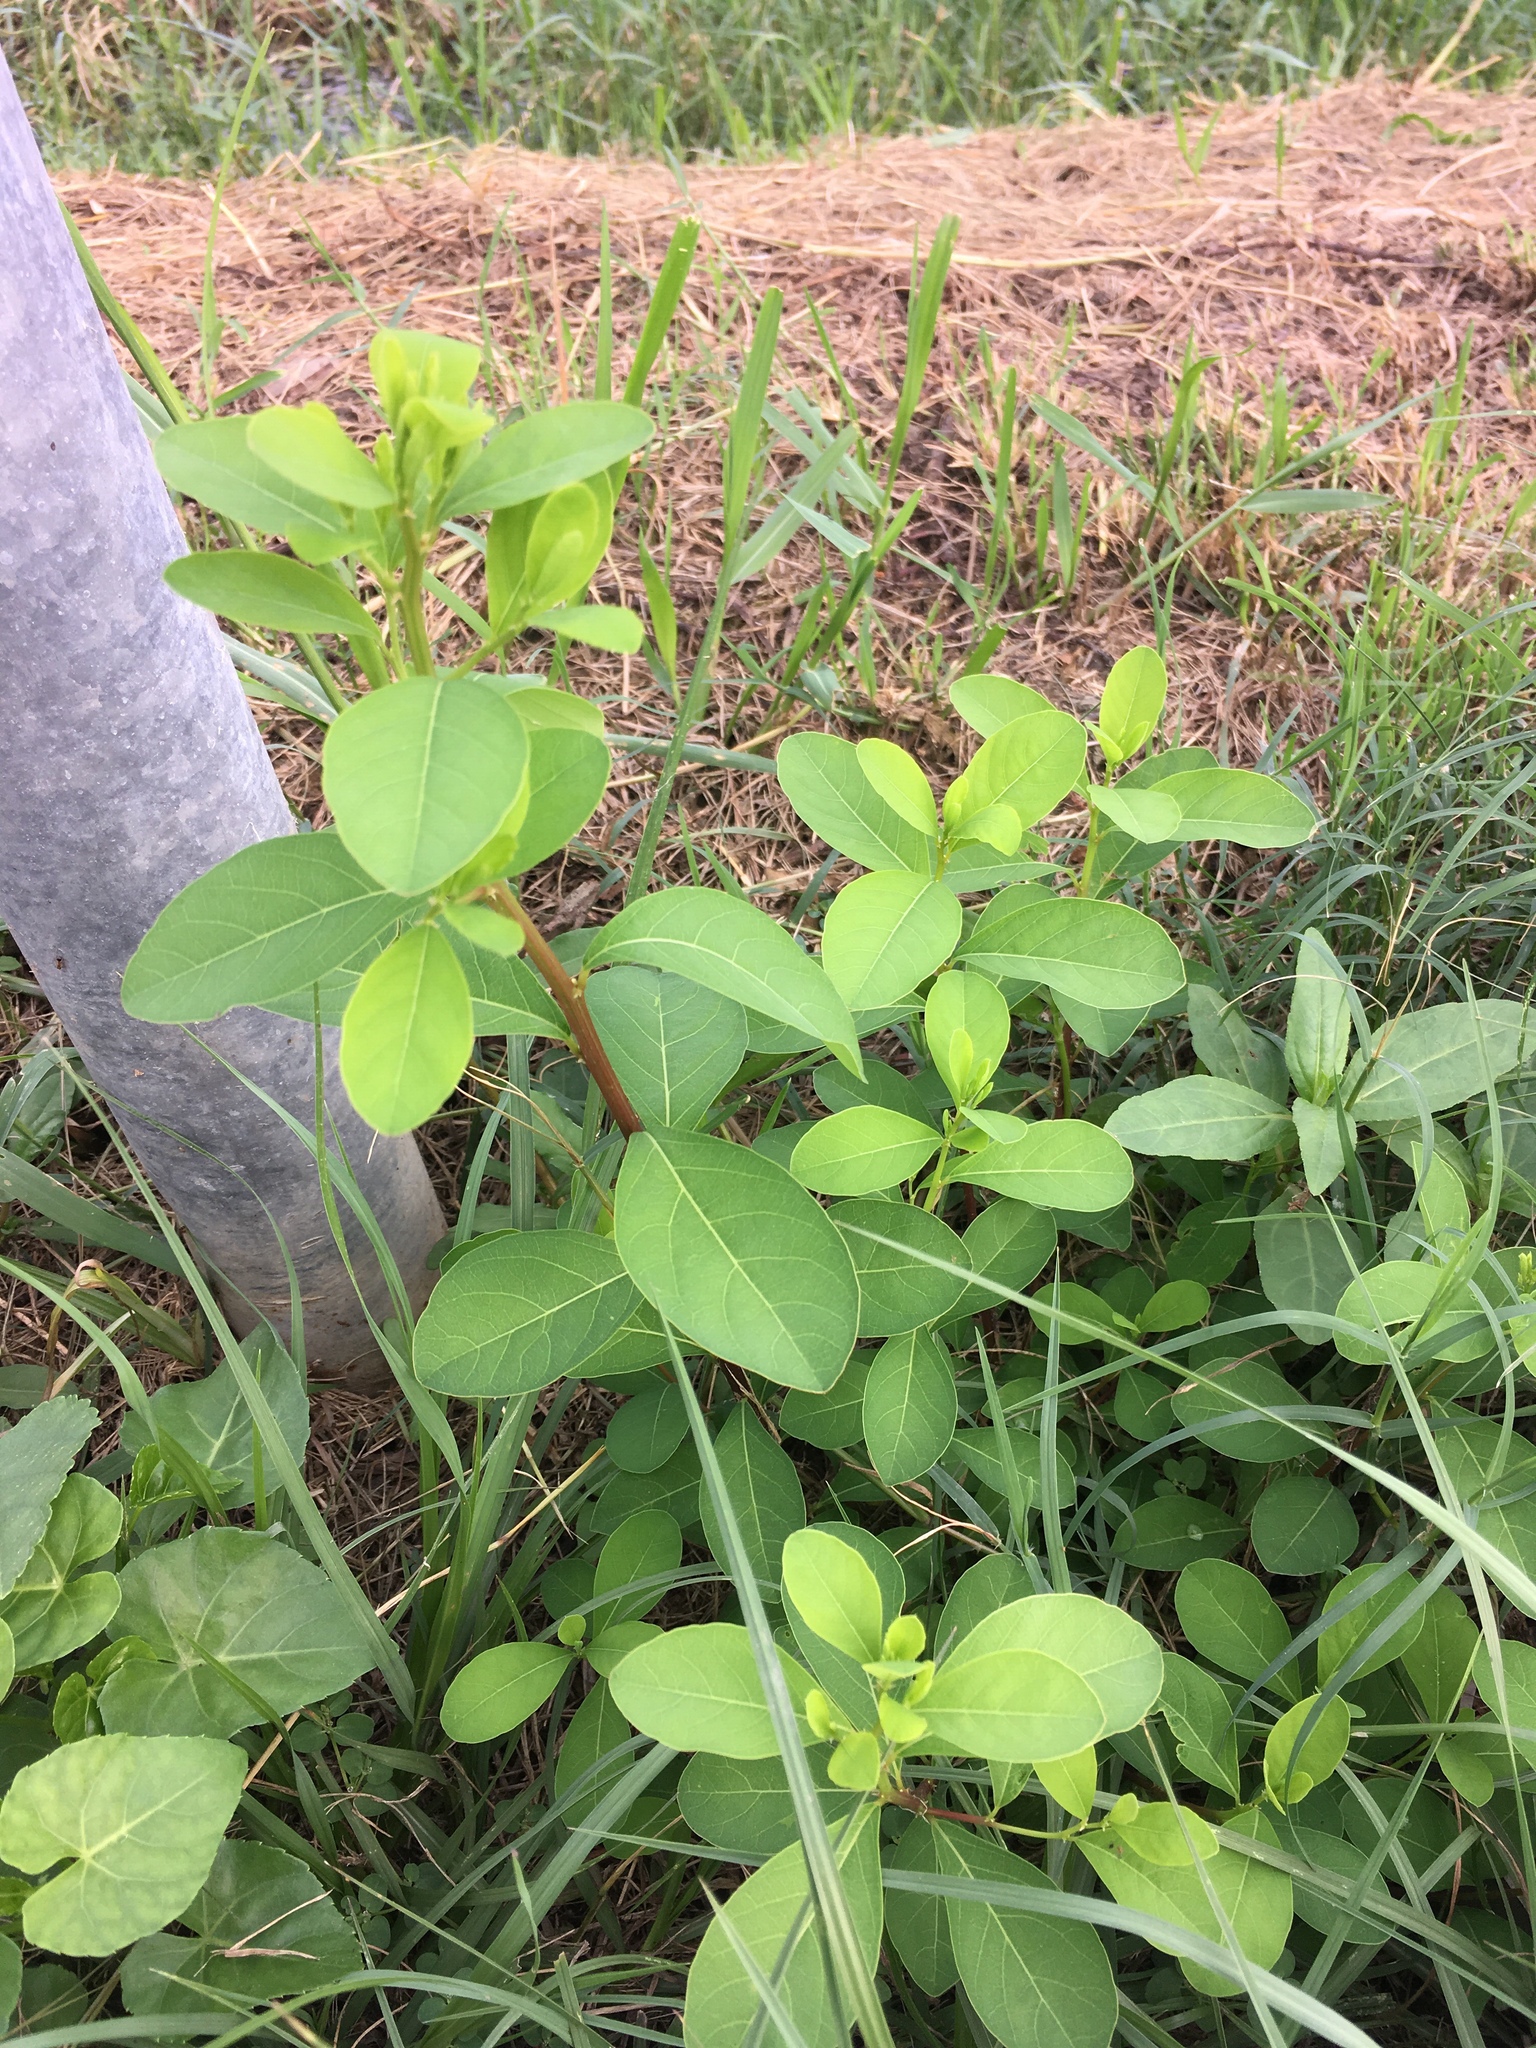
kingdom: Plantae
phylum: Tracheophyta
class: Magnoliopsida
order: Malpighiales
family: Phyllanthaceae
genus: Flueggea
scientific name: Flueggea virosa
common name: Common bushweed
